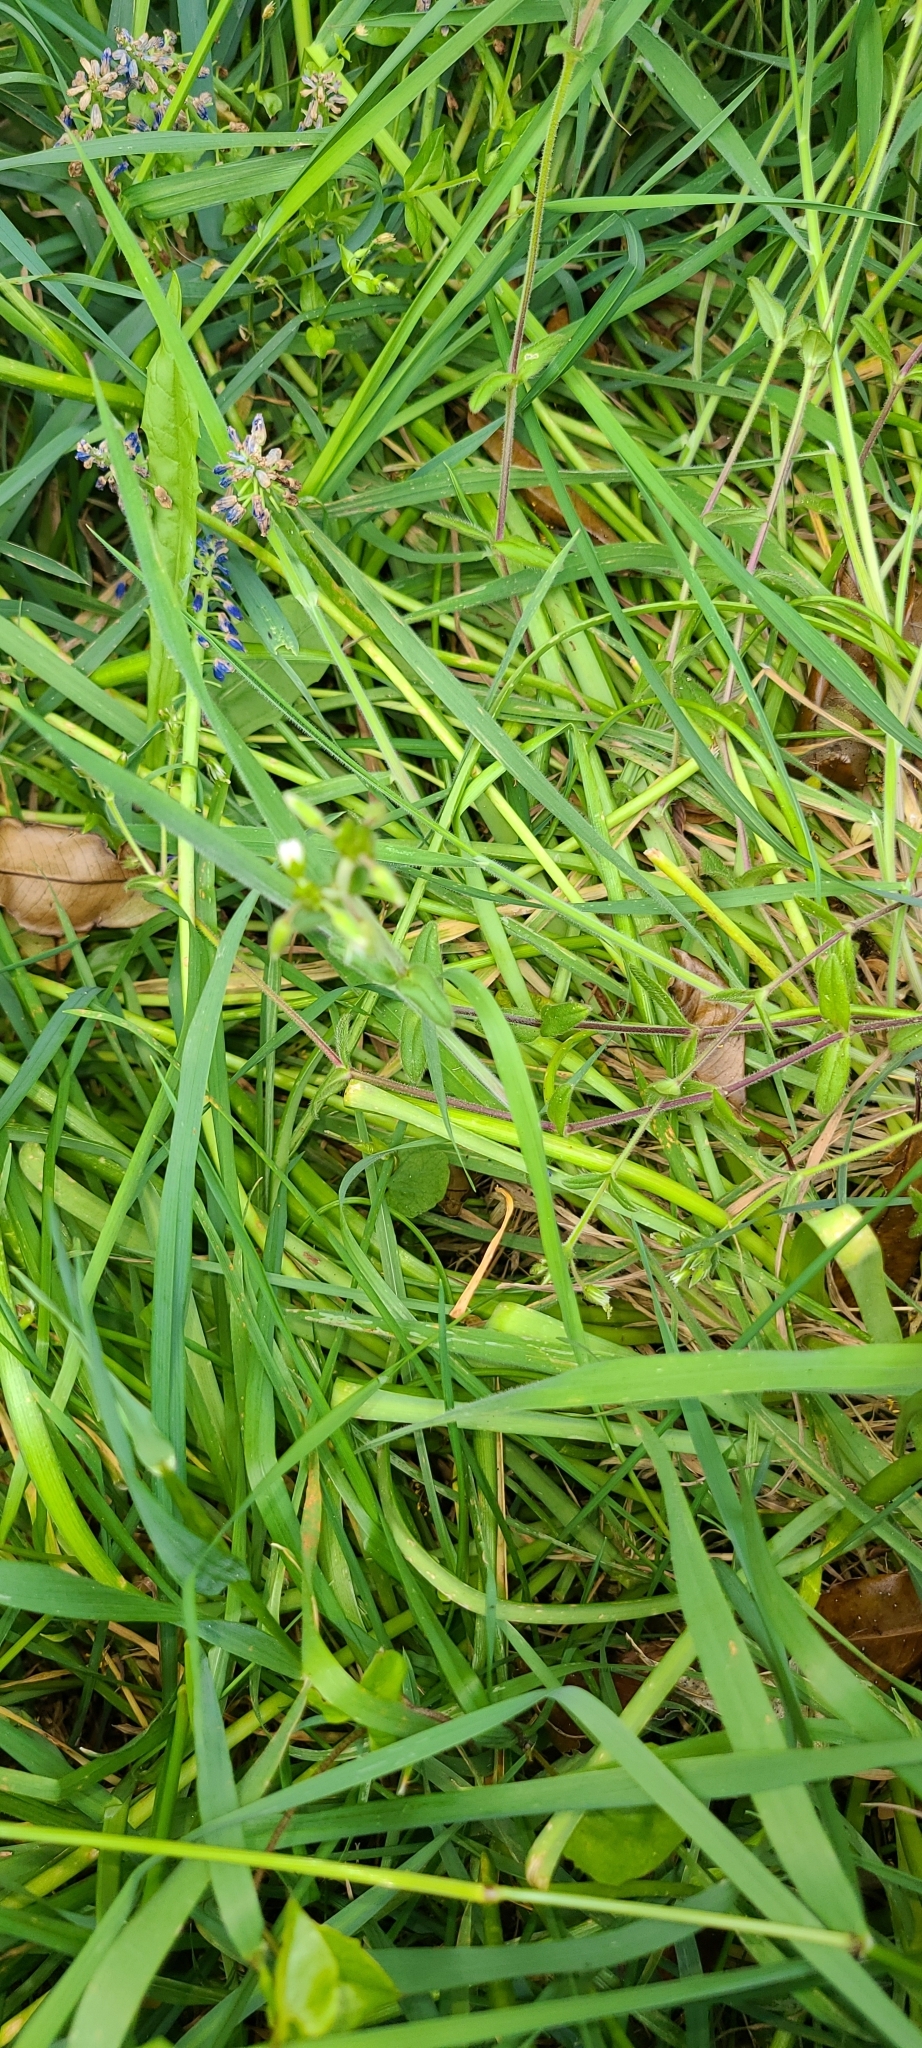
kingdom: Plantae
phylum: Tracheophyta
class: Liliopsida
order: Asparagales
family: Asparagaceae
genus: Muscari
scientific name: Muscari armeniacum
